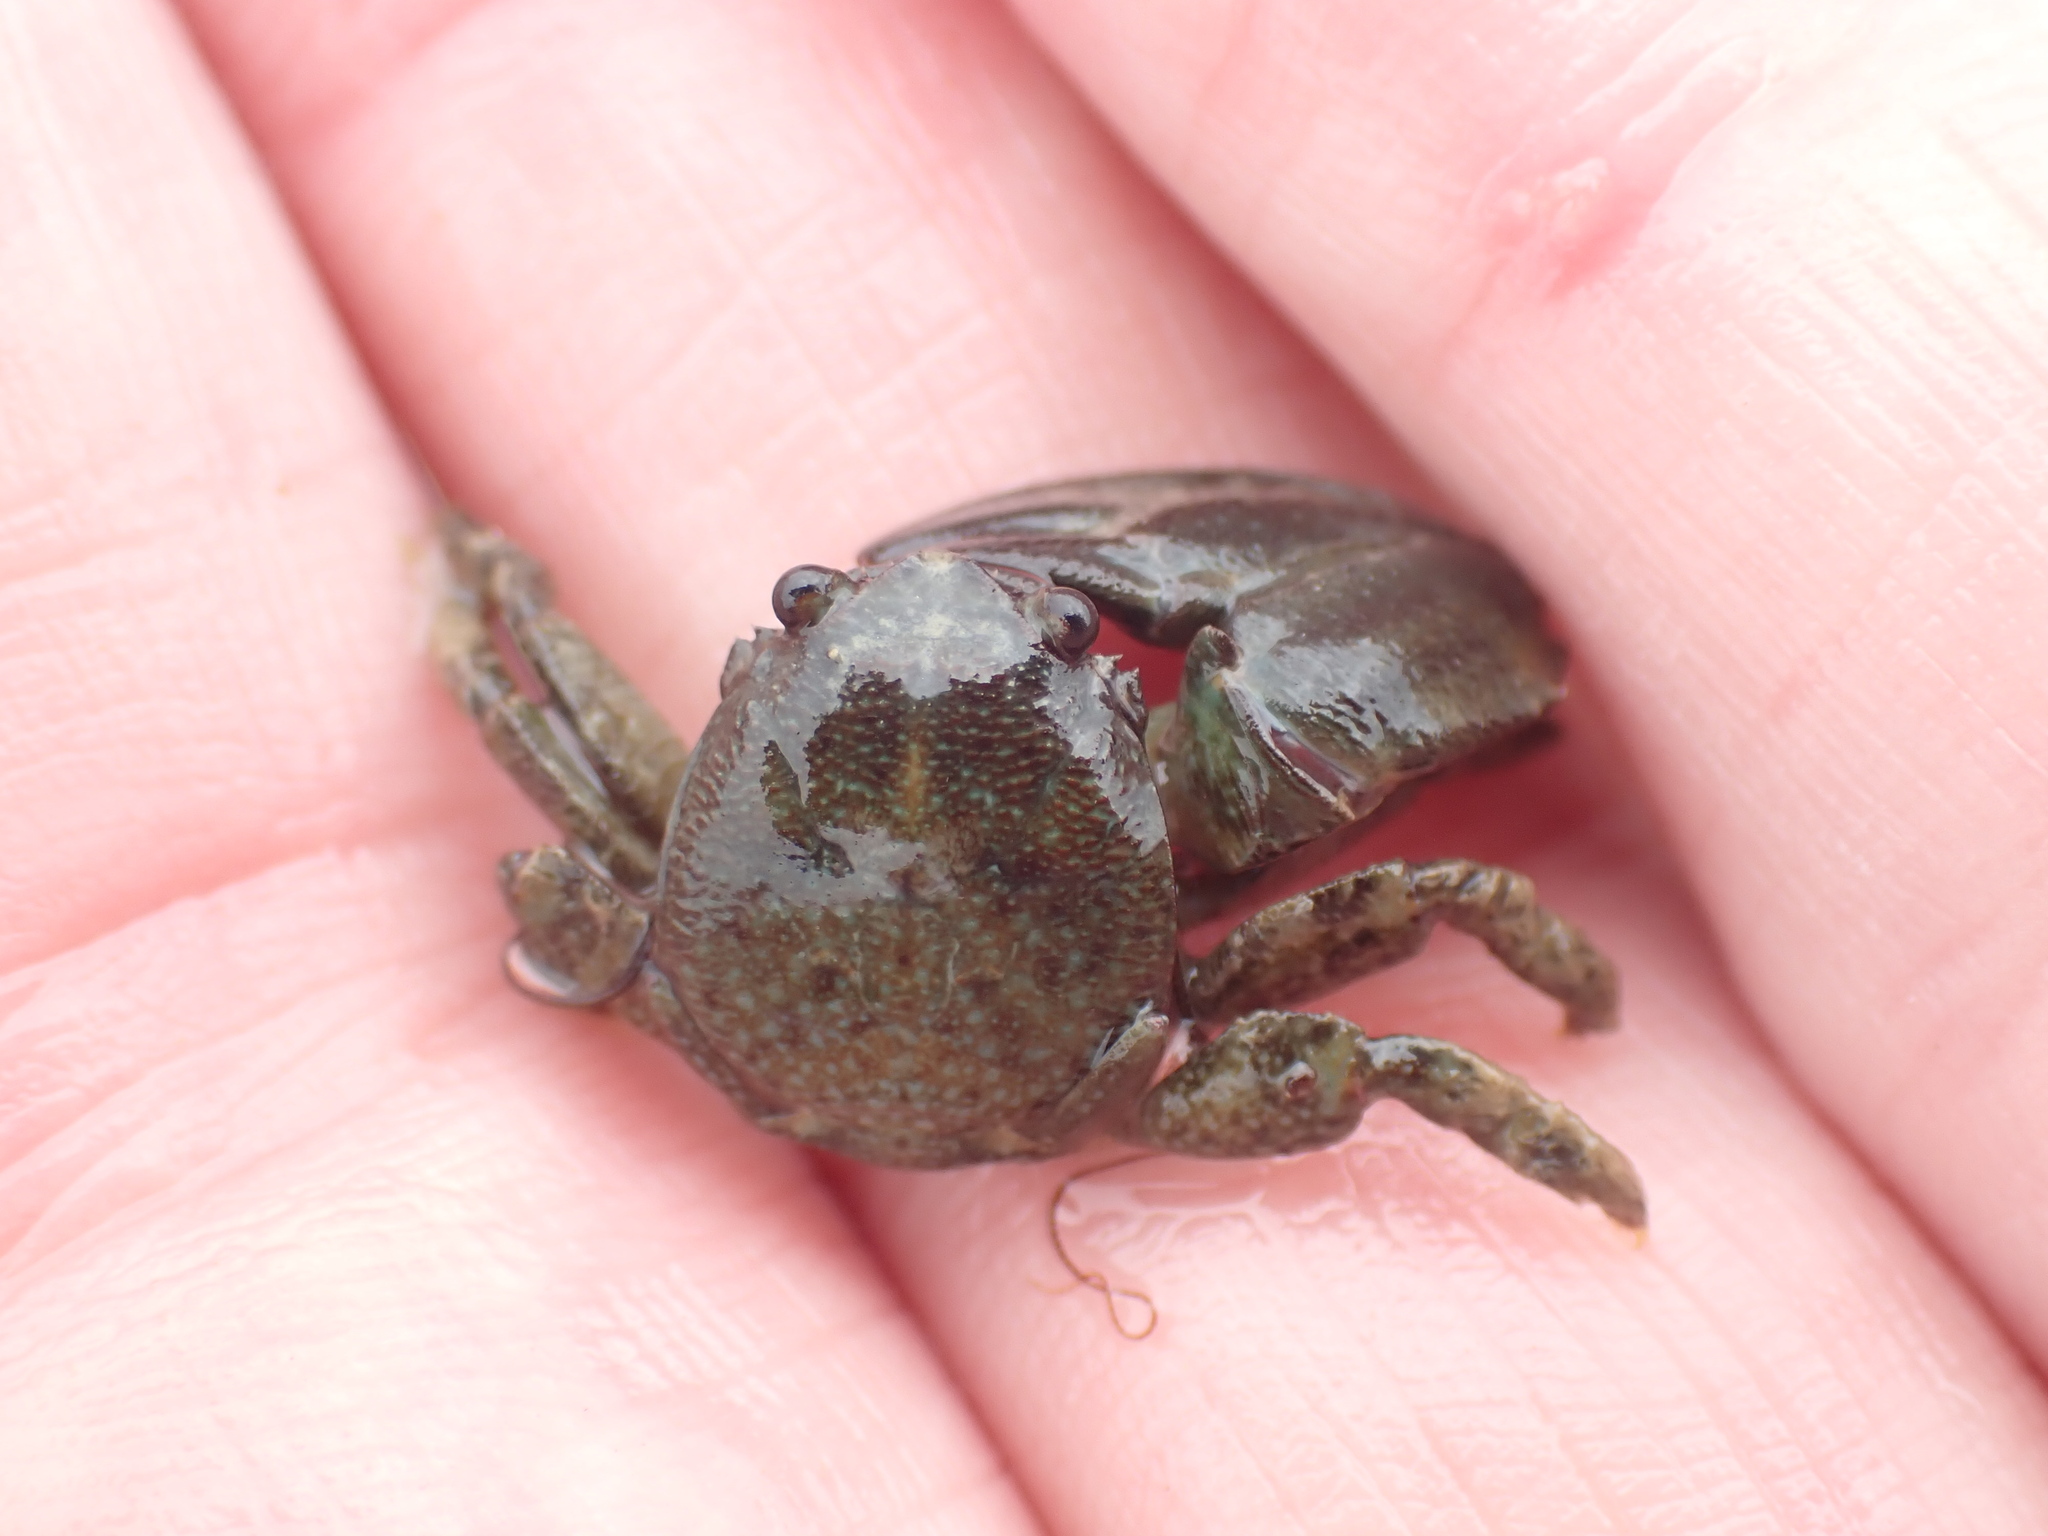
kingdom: Animalia
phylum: Arthropoda
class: Malacostraca
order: Decapoda
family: Porcellanidae
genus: Petrolisthes
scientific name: Petrolisthes elongatus
